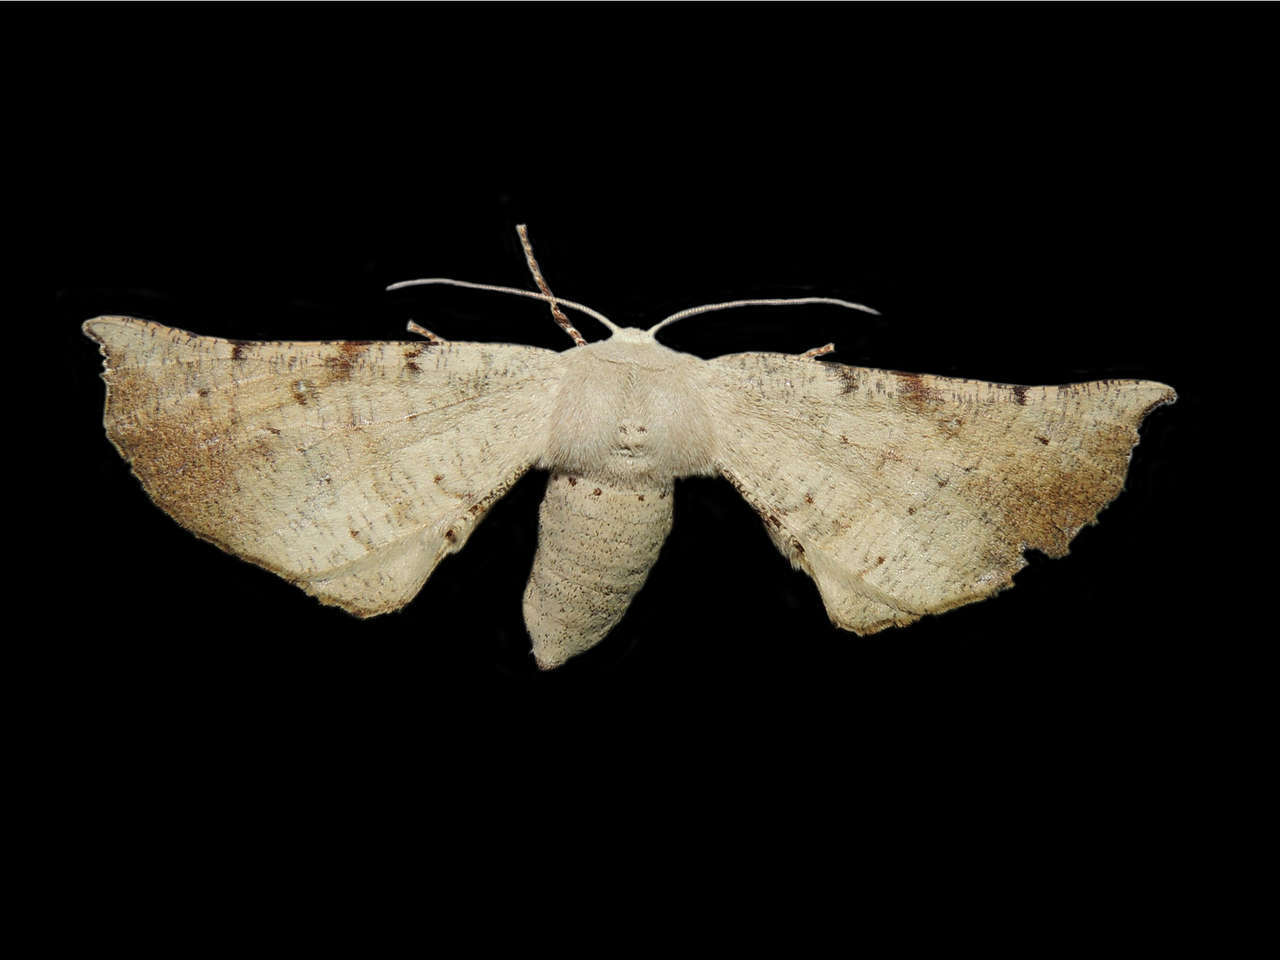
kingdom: Animalia
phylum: Arthropoda
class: Insecta
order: Lepidoptera
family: Geometridae
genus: Circopetes
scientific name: Circopetes obtusata
